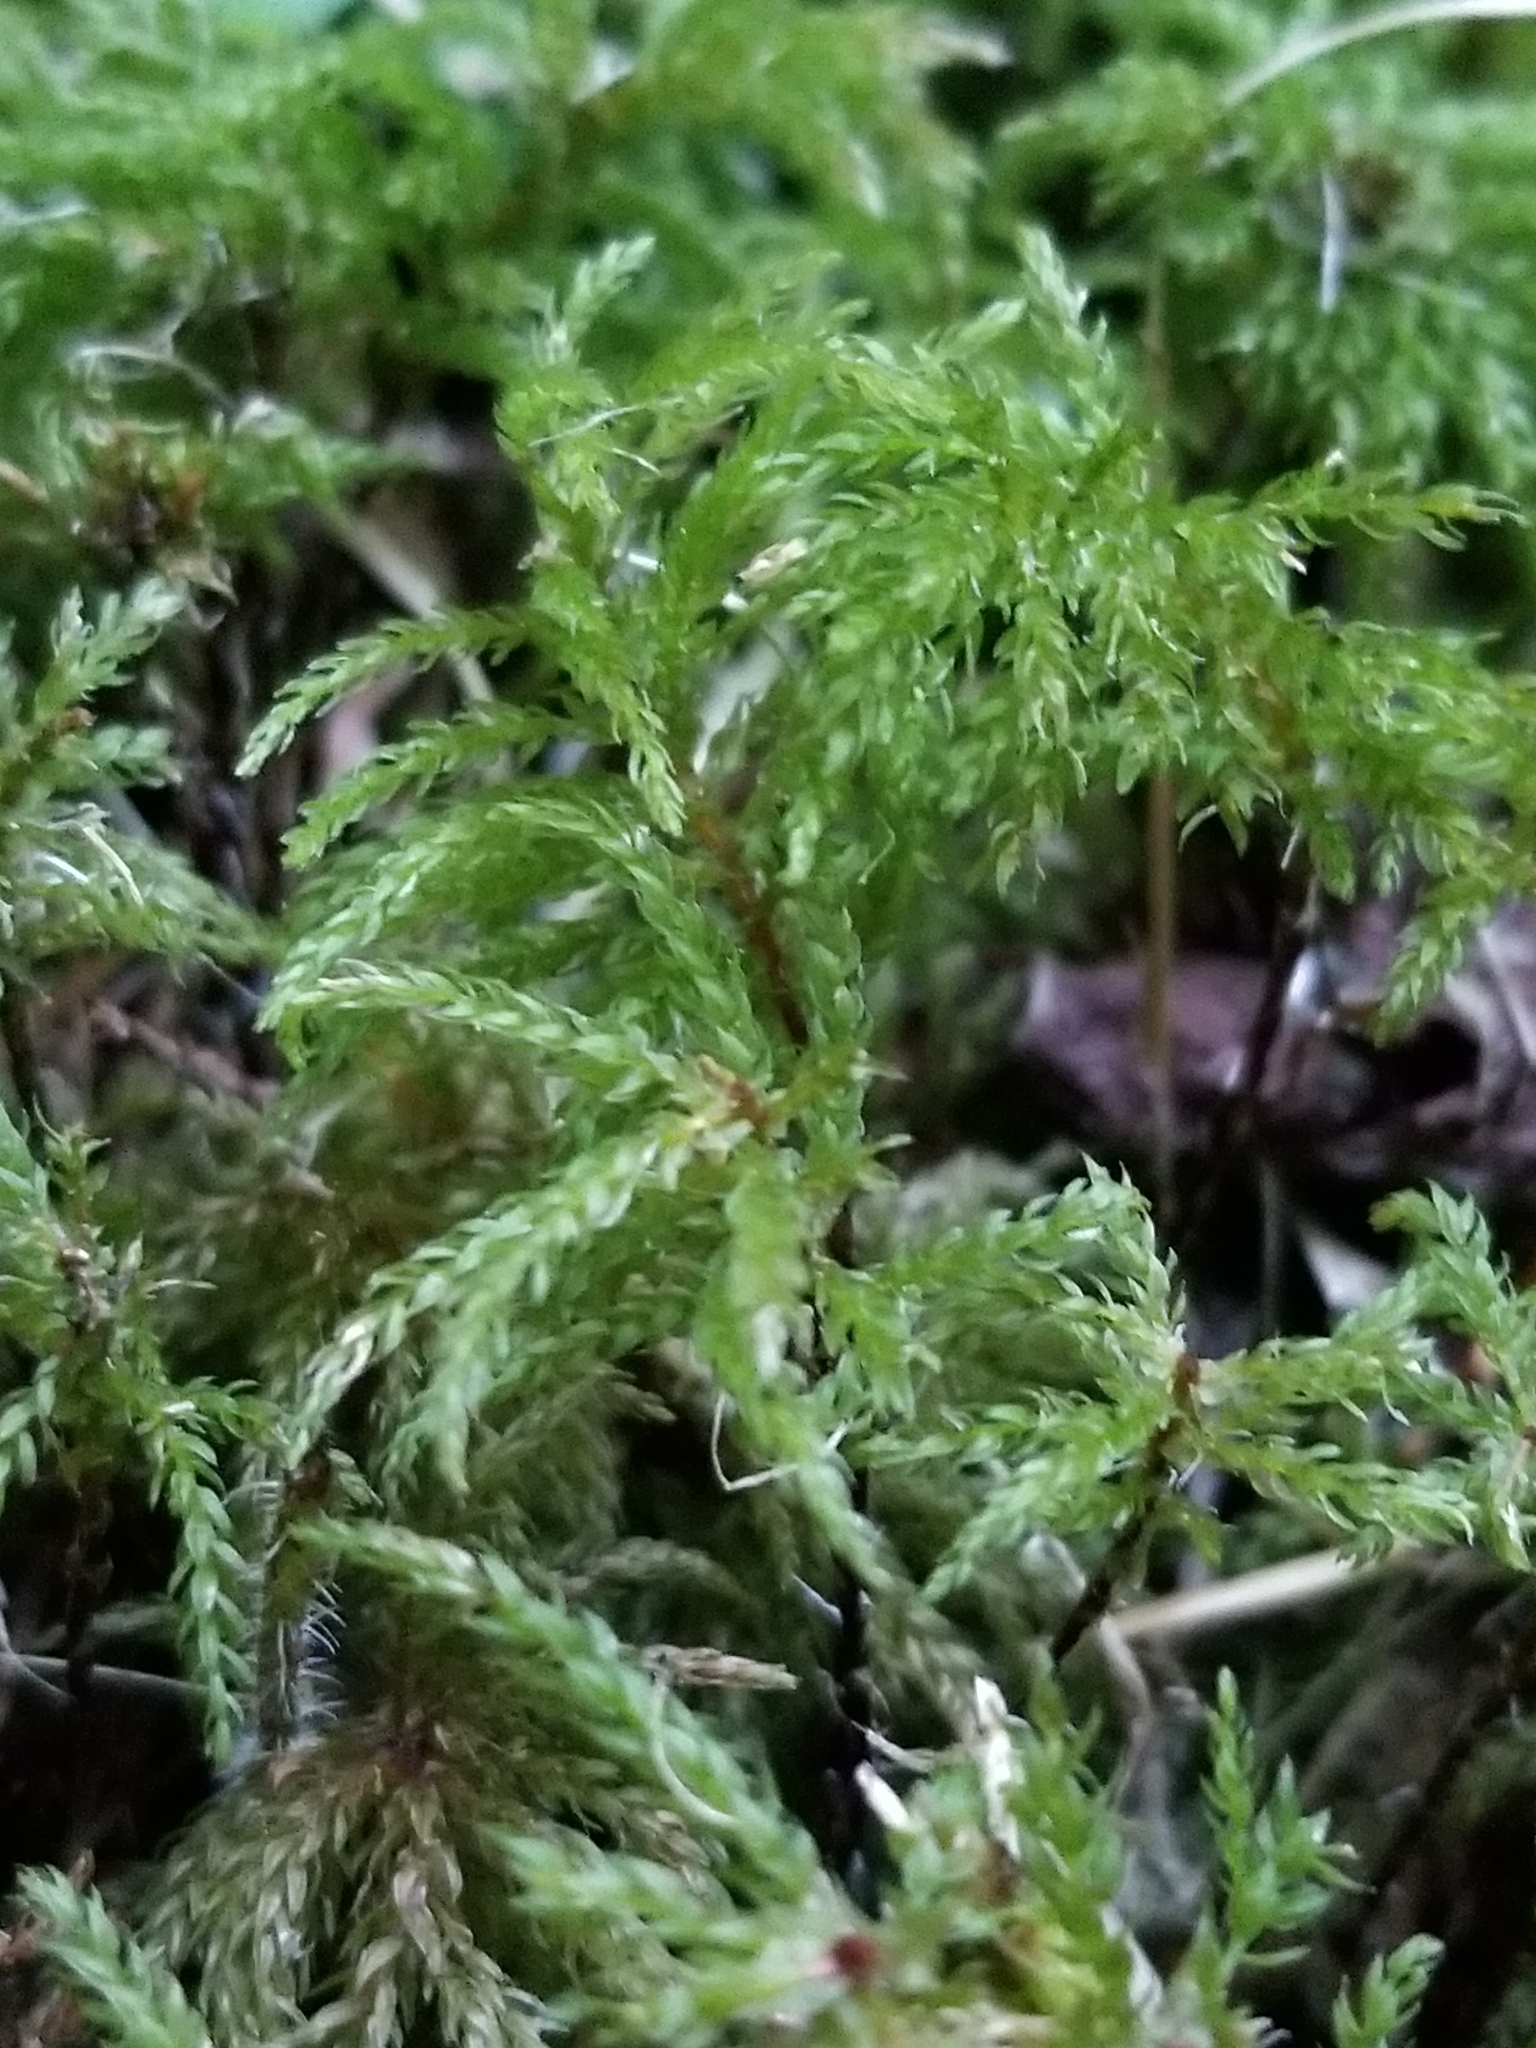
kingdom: Plantae
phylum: Bryophyta
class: Bryopsida
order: Bryales
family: Mniaceae
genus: Leucolepis
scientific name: Leucolepis acanthoneura
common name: Leucolepis umbrella moss
